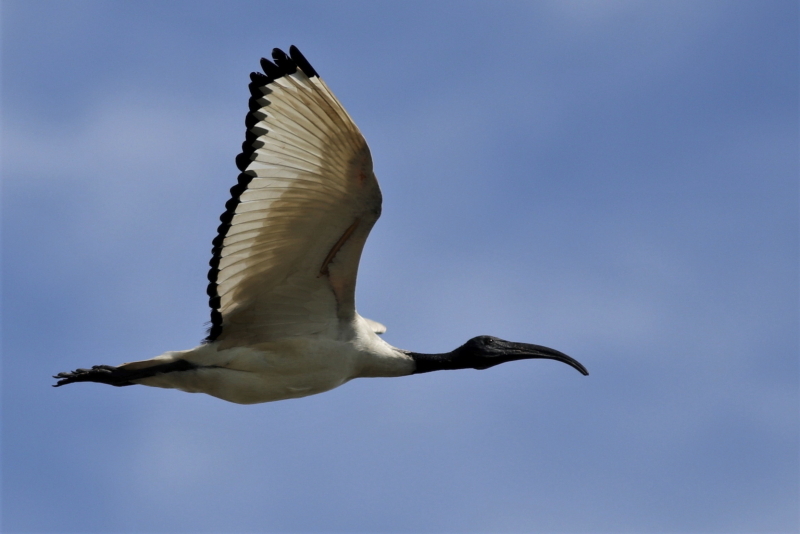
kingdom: Animalia
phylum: Chordata
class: Aves
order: Pelecaniformes
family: Threskiornithidae
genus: Threskiornis
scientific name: Threskiornis aethiopicus
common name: Sacred ibis
